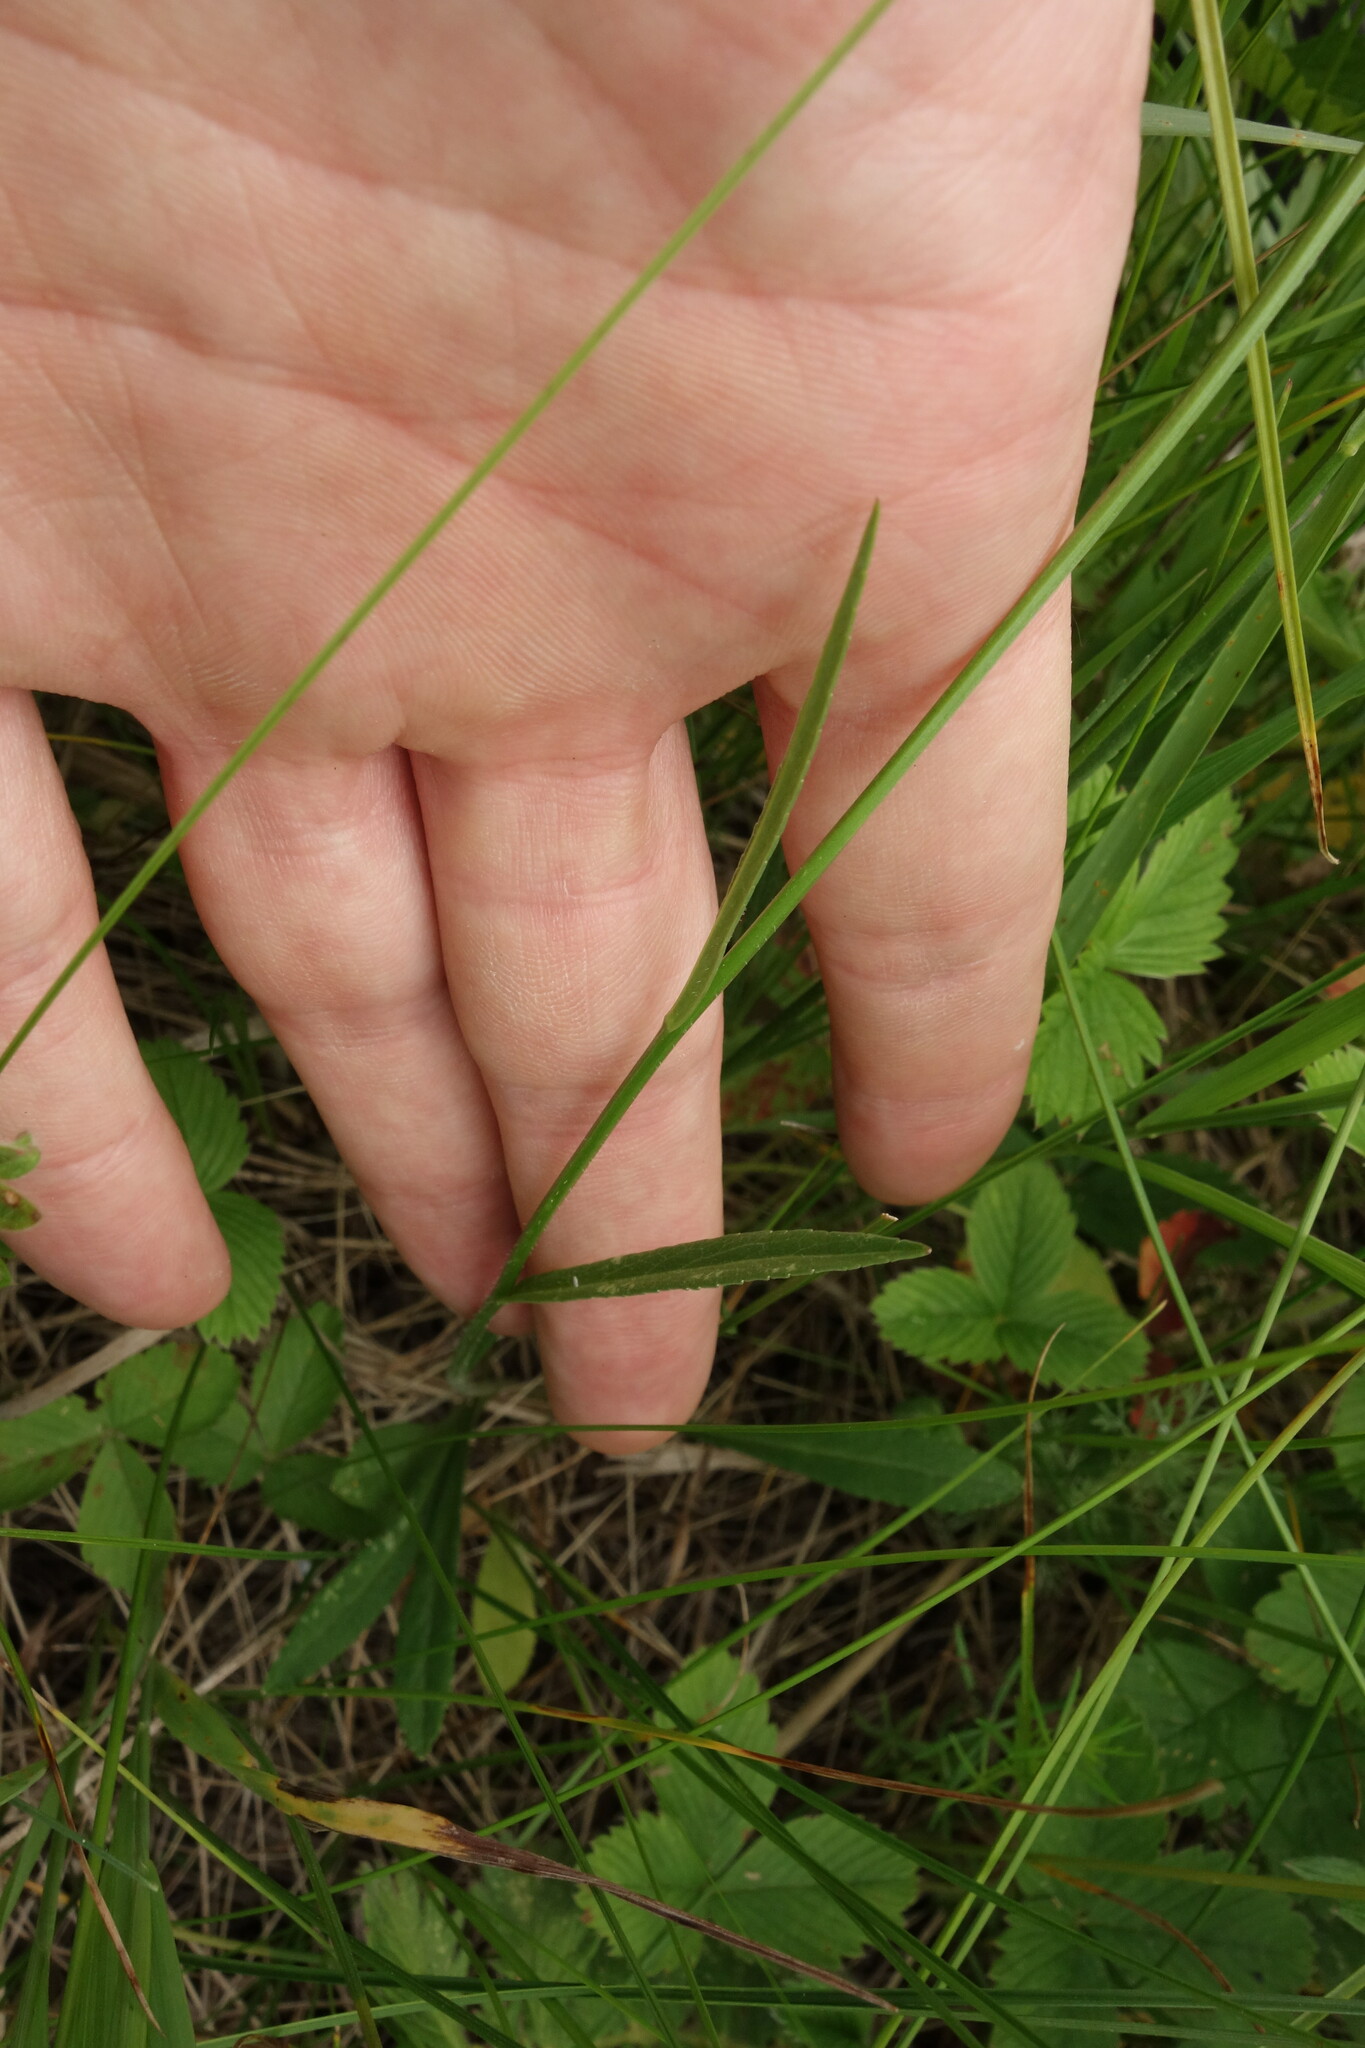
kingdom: Plantae
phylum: Tracheophyta
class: Magnoliopsida
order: Asterales
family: Campanulaceae
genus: Campanula
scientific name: Campanula stevenii
